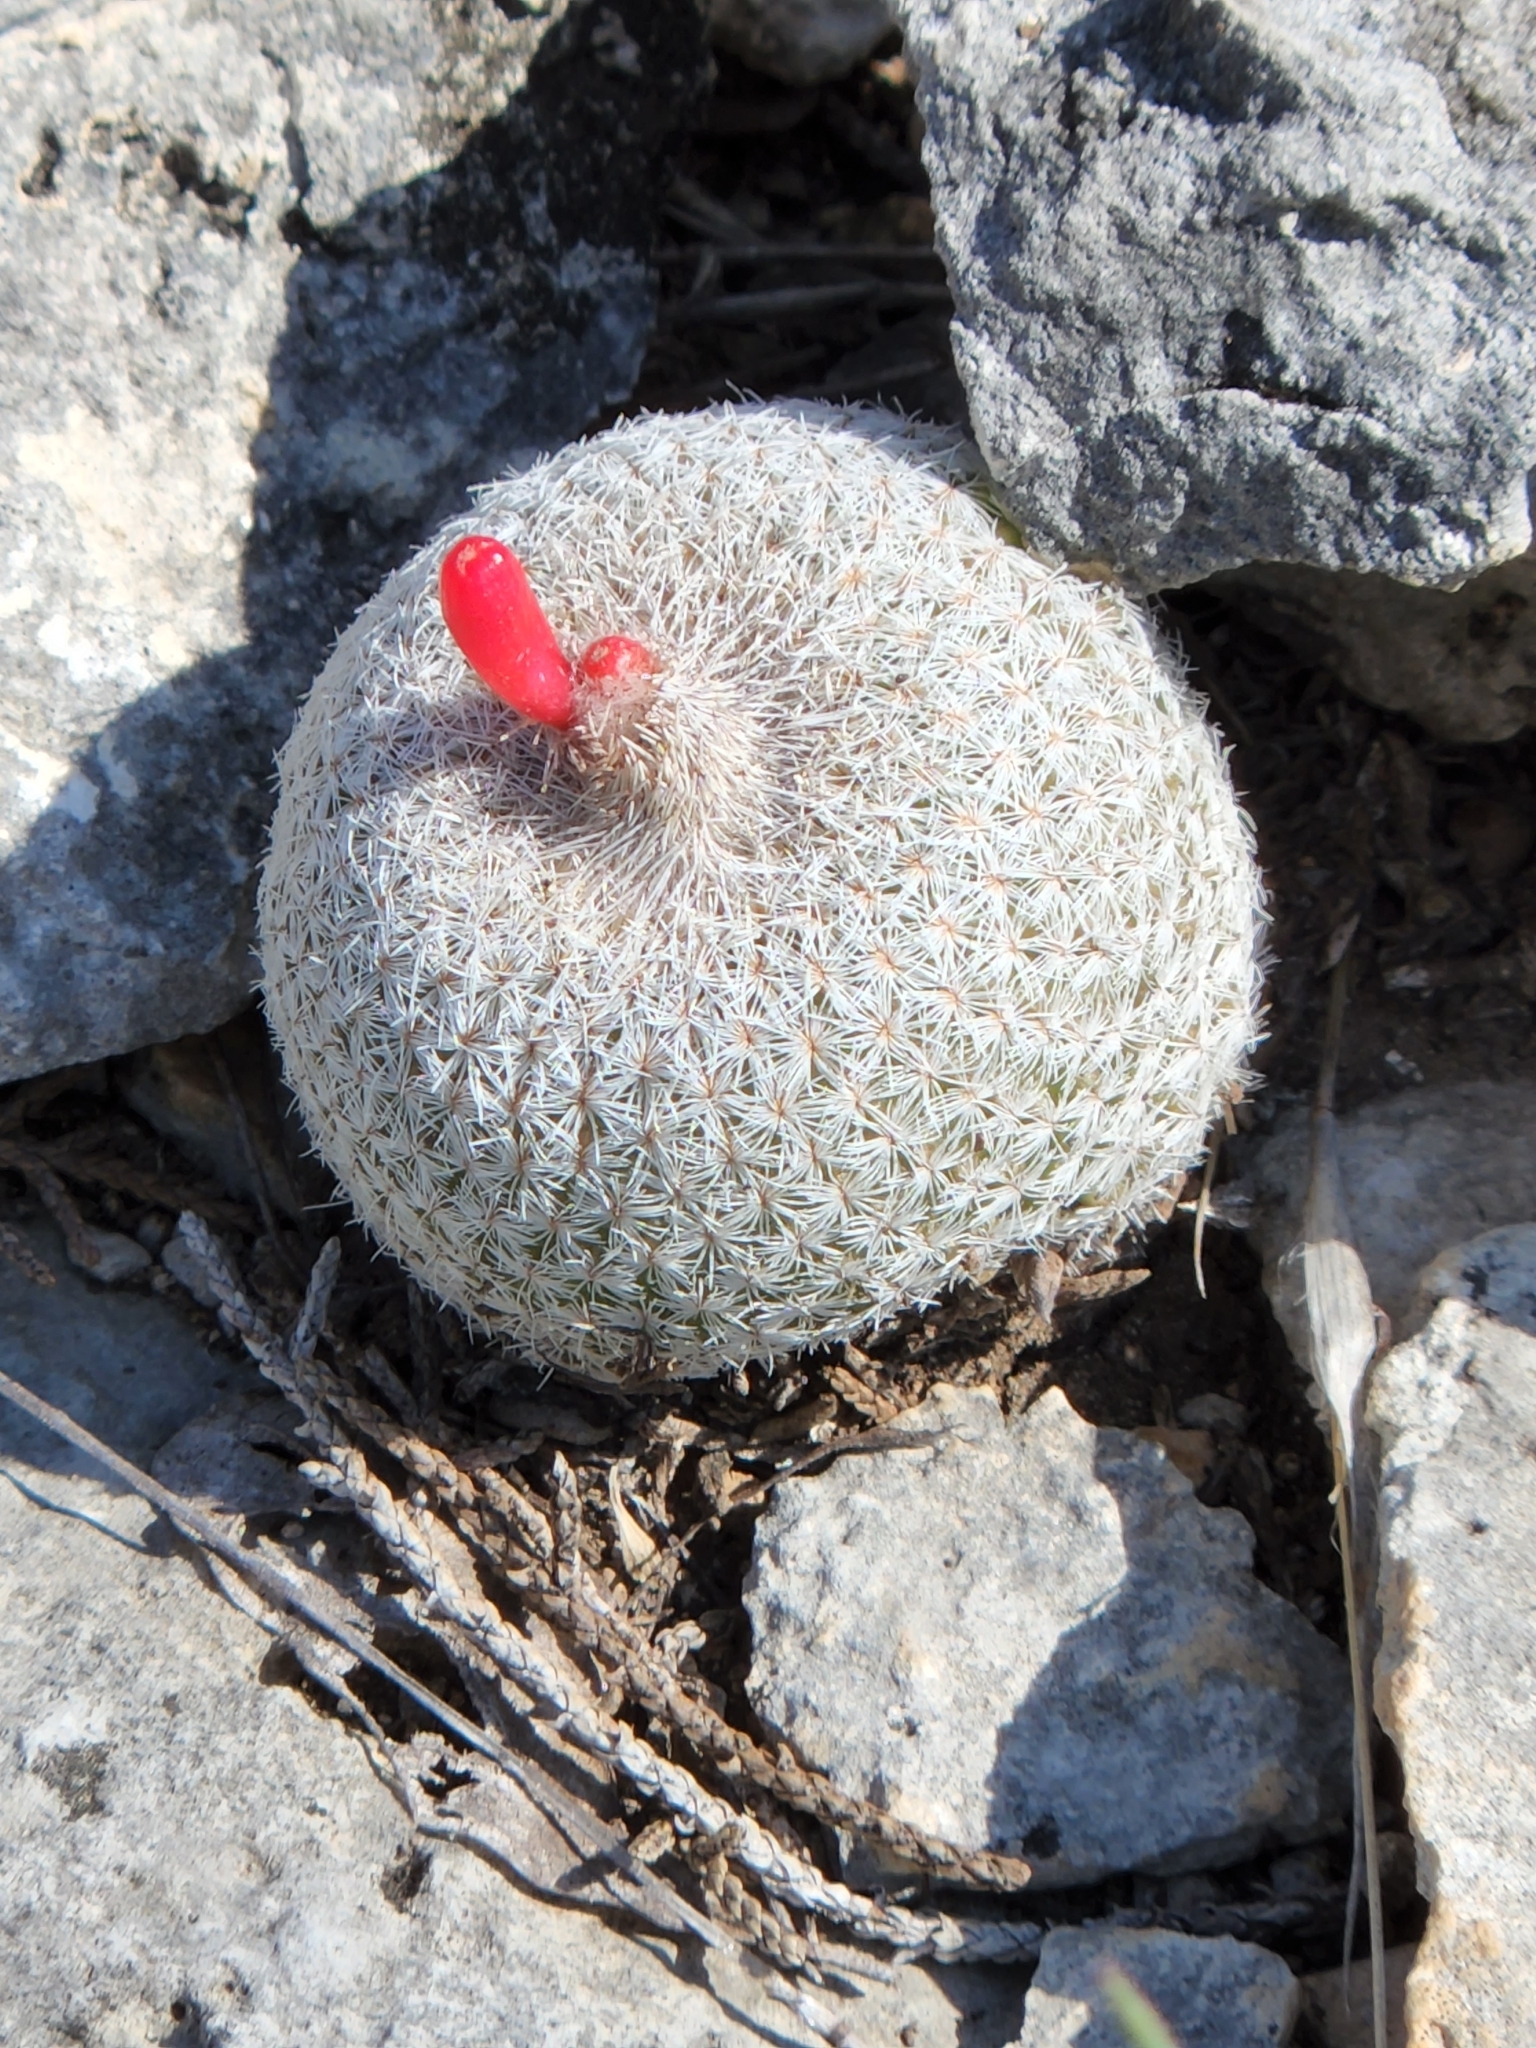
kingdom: Plantae
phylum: Tracheophyta
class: Magnoliopsida
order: Caryophyllales
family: Cactaceae
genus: Epithelantha
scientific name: Epithelantha micromeris
